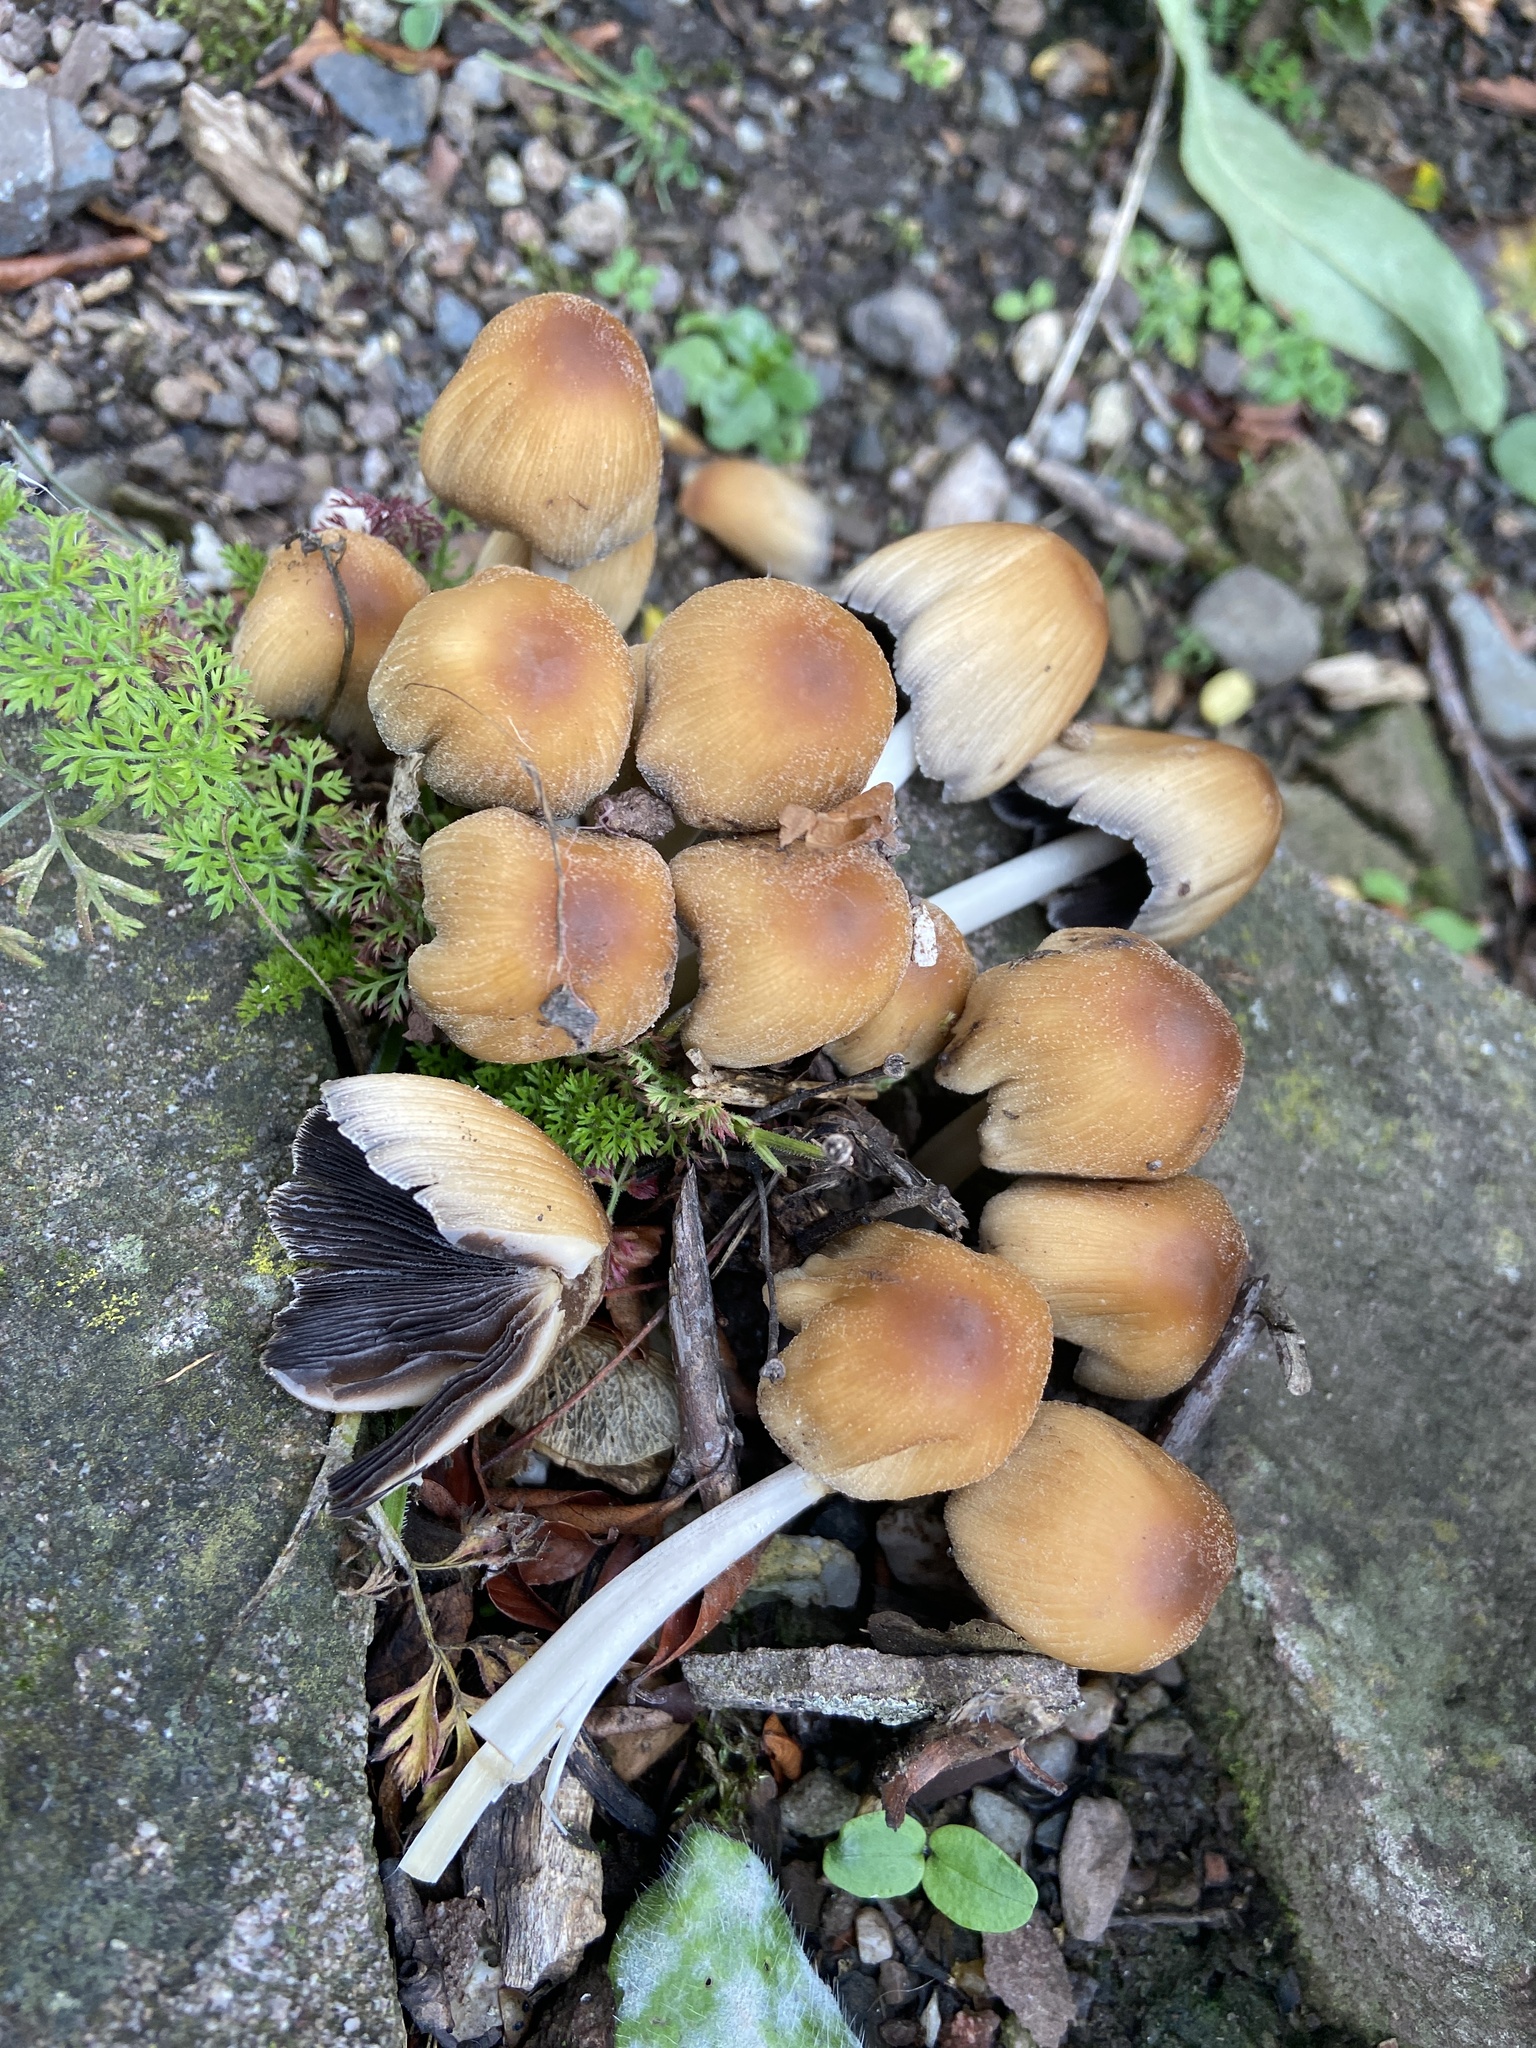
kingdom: Fungi
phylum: Basidiomycota
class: Agaricomycetes
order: Agaricales
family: Psathyrellaceae
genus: Coprinellus
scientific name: Coprinellus micaceus
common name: Glistening ink-cap
